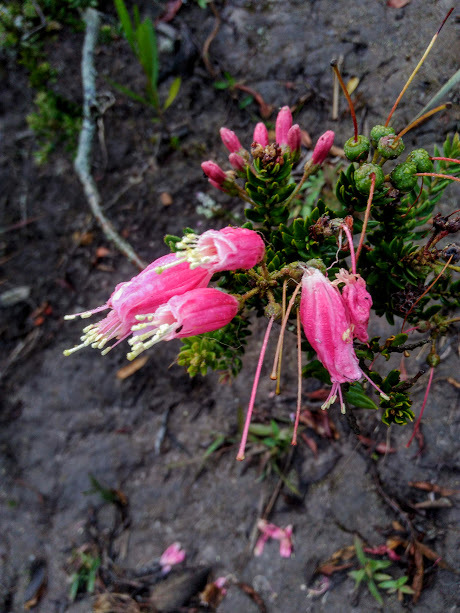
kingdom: Plantae
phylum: Tracheophyta
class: Magnoliopsida
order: Ericales
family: Ericaceae
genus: Bejaria
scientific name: Bejaria resinosa
